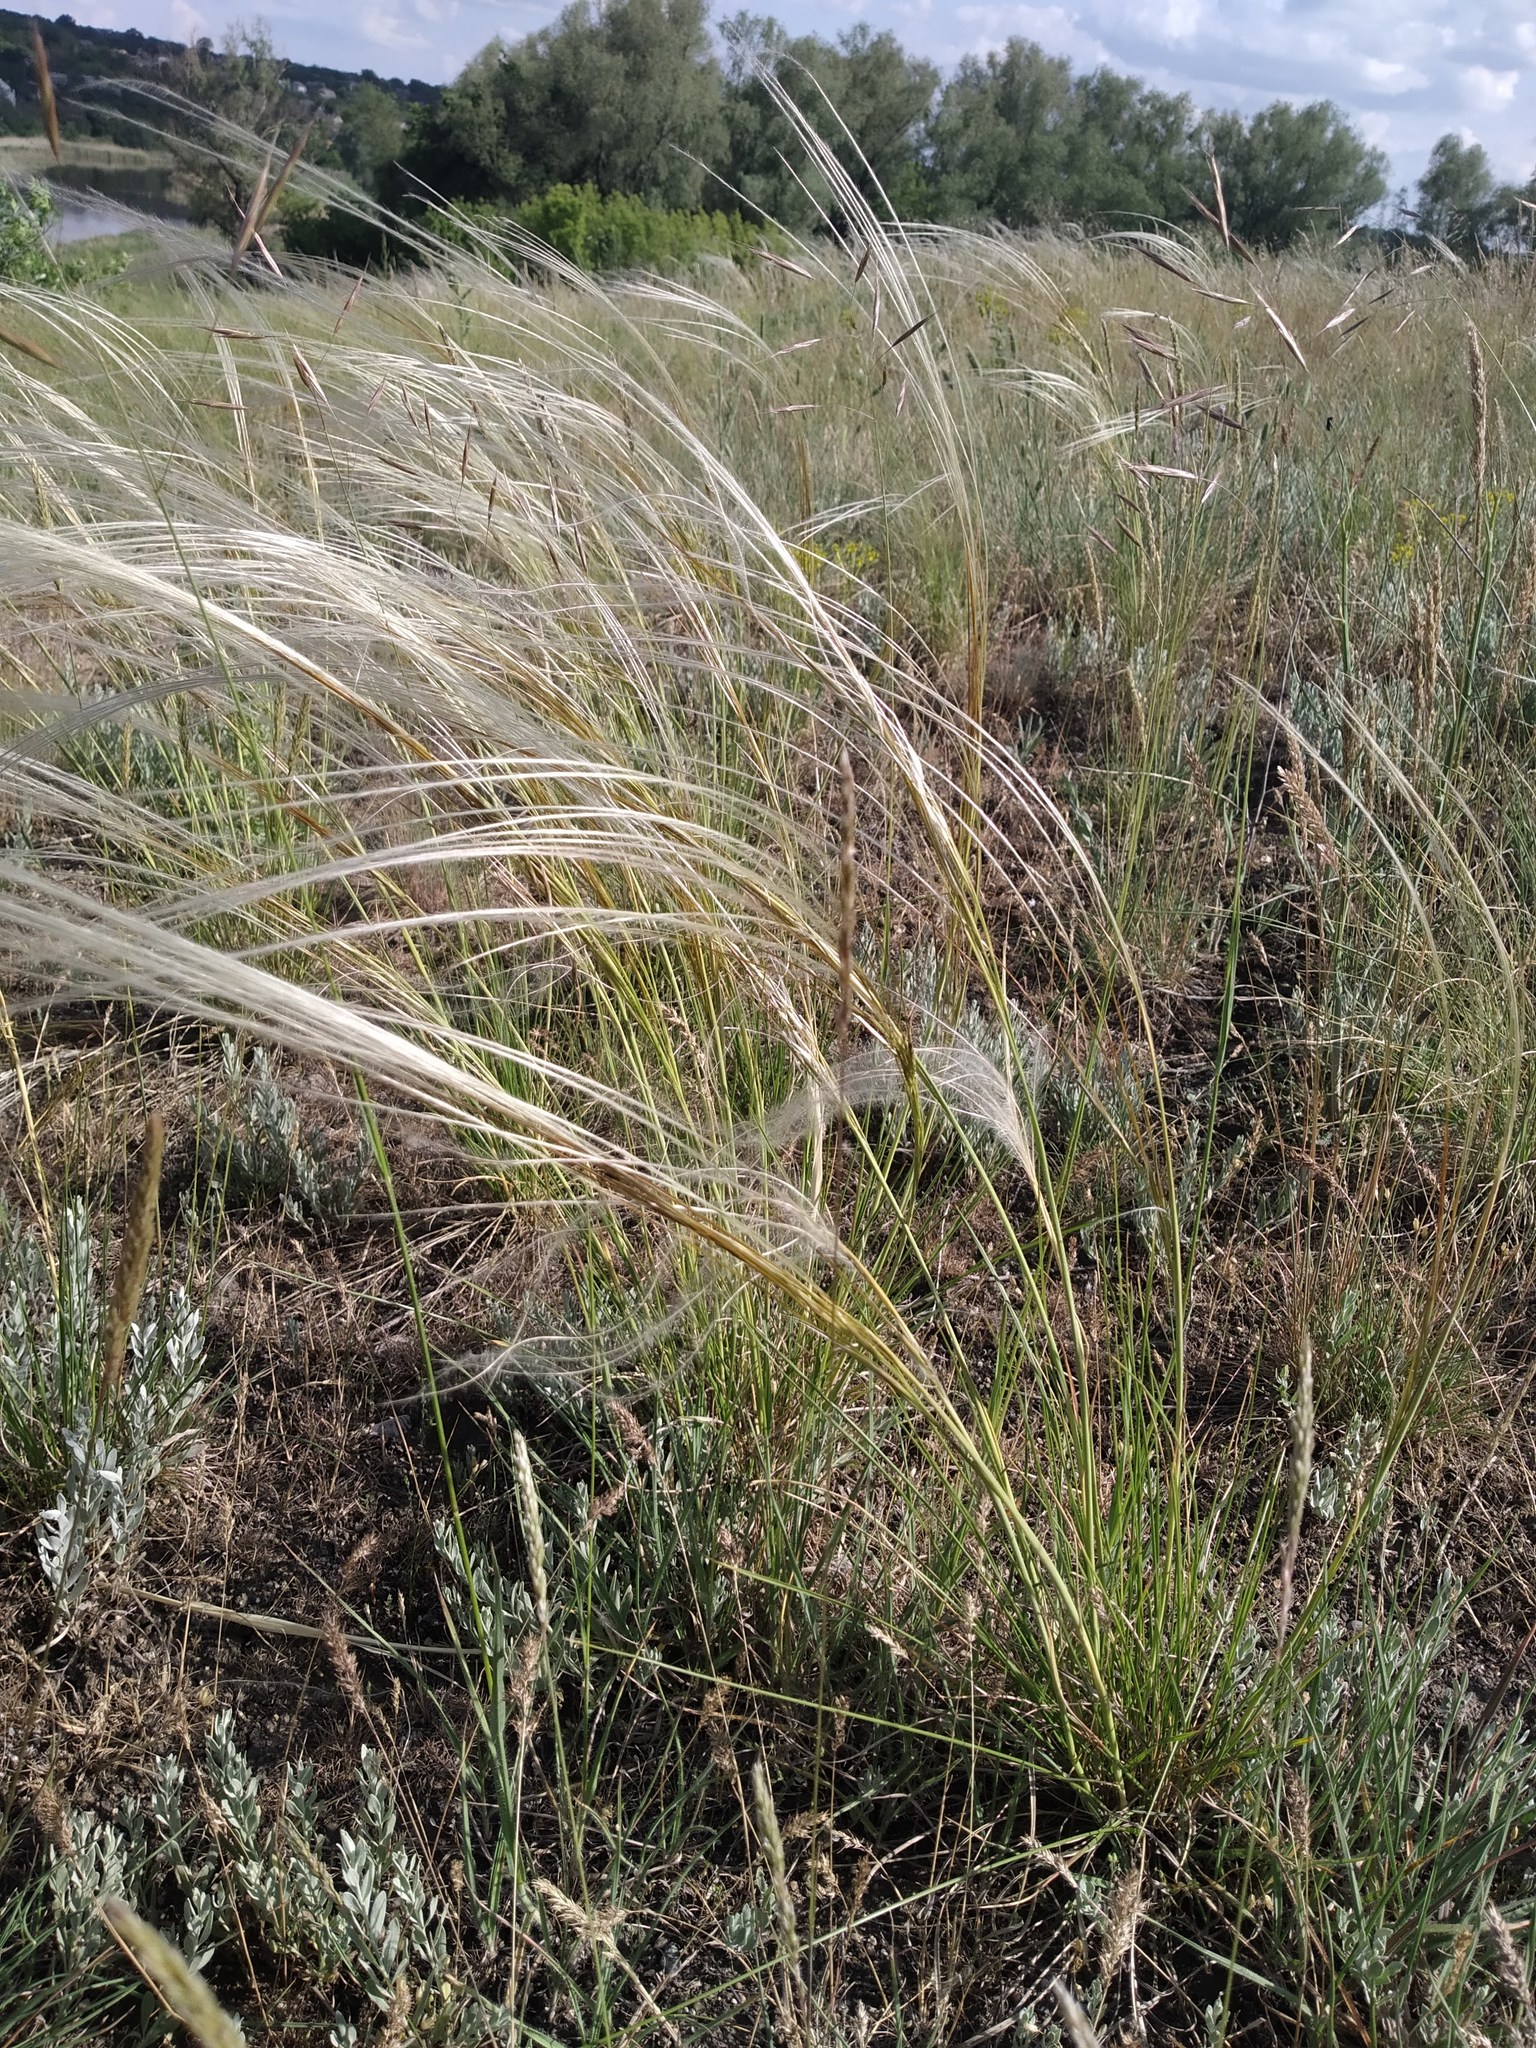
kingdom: Plantae
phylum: Tracheophyta
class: Liliopsida
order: Poales
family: Poaceae
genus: Stipa
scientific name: Stipa pennata
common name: European feather grass
